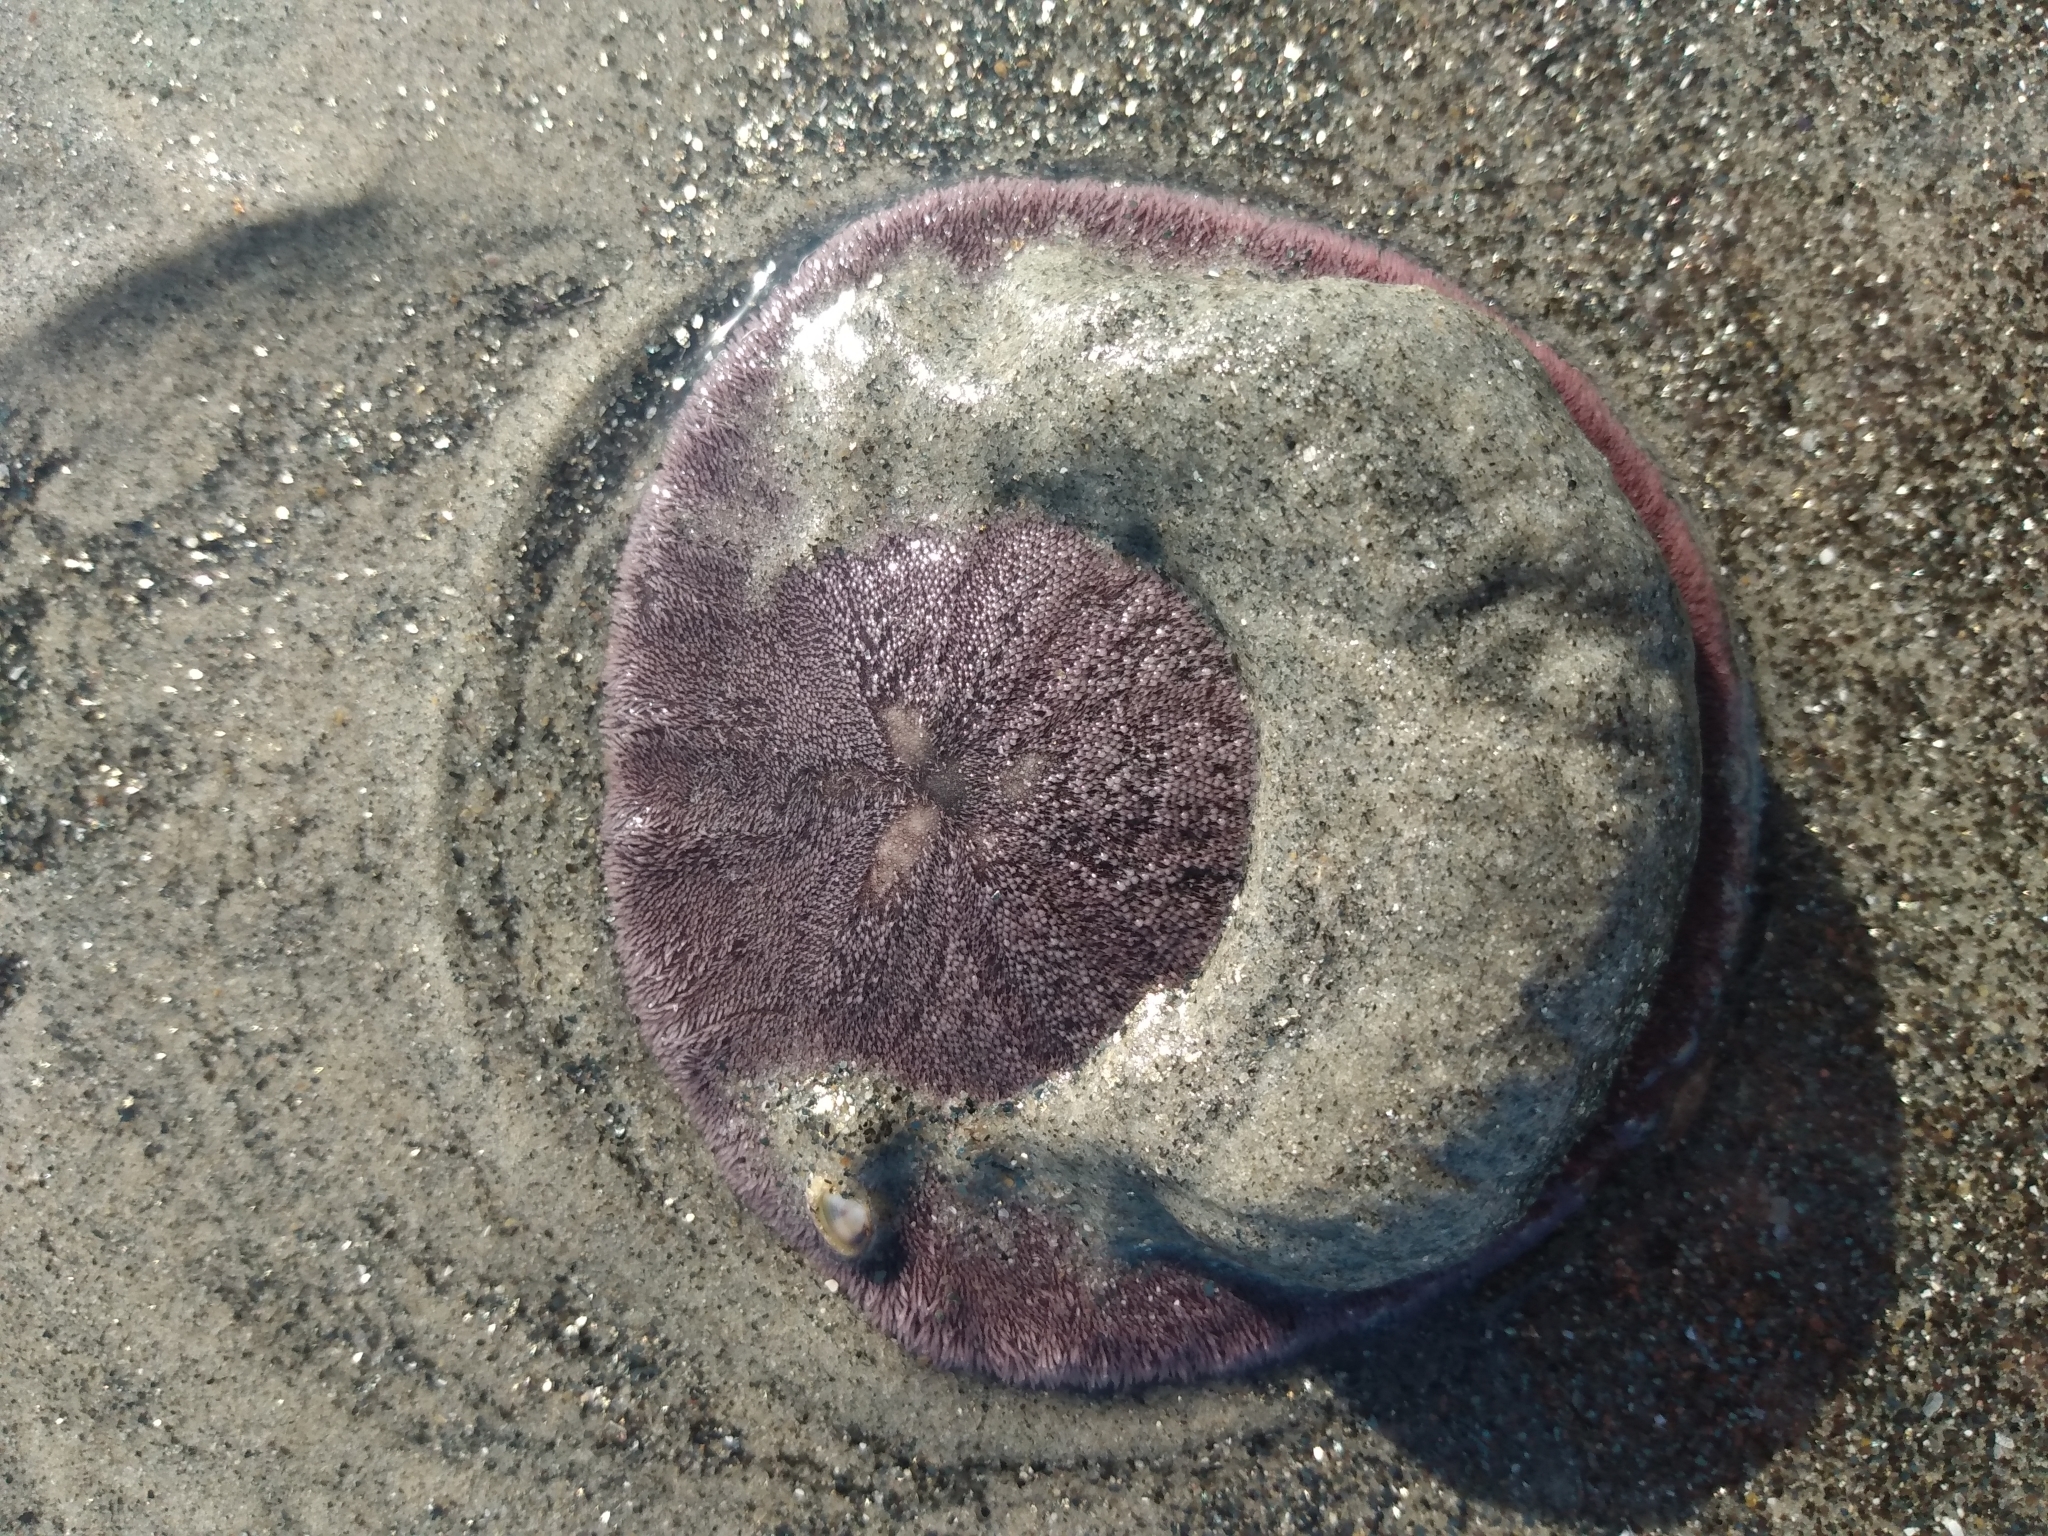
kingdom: Animalia
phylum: Echinodermata
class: Echinoidea
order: Echinolampadacea
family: Dendrasteridae
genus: Dendraster
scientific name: Dendraster excentricus
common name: Eccentric sand dollar sea urchin
